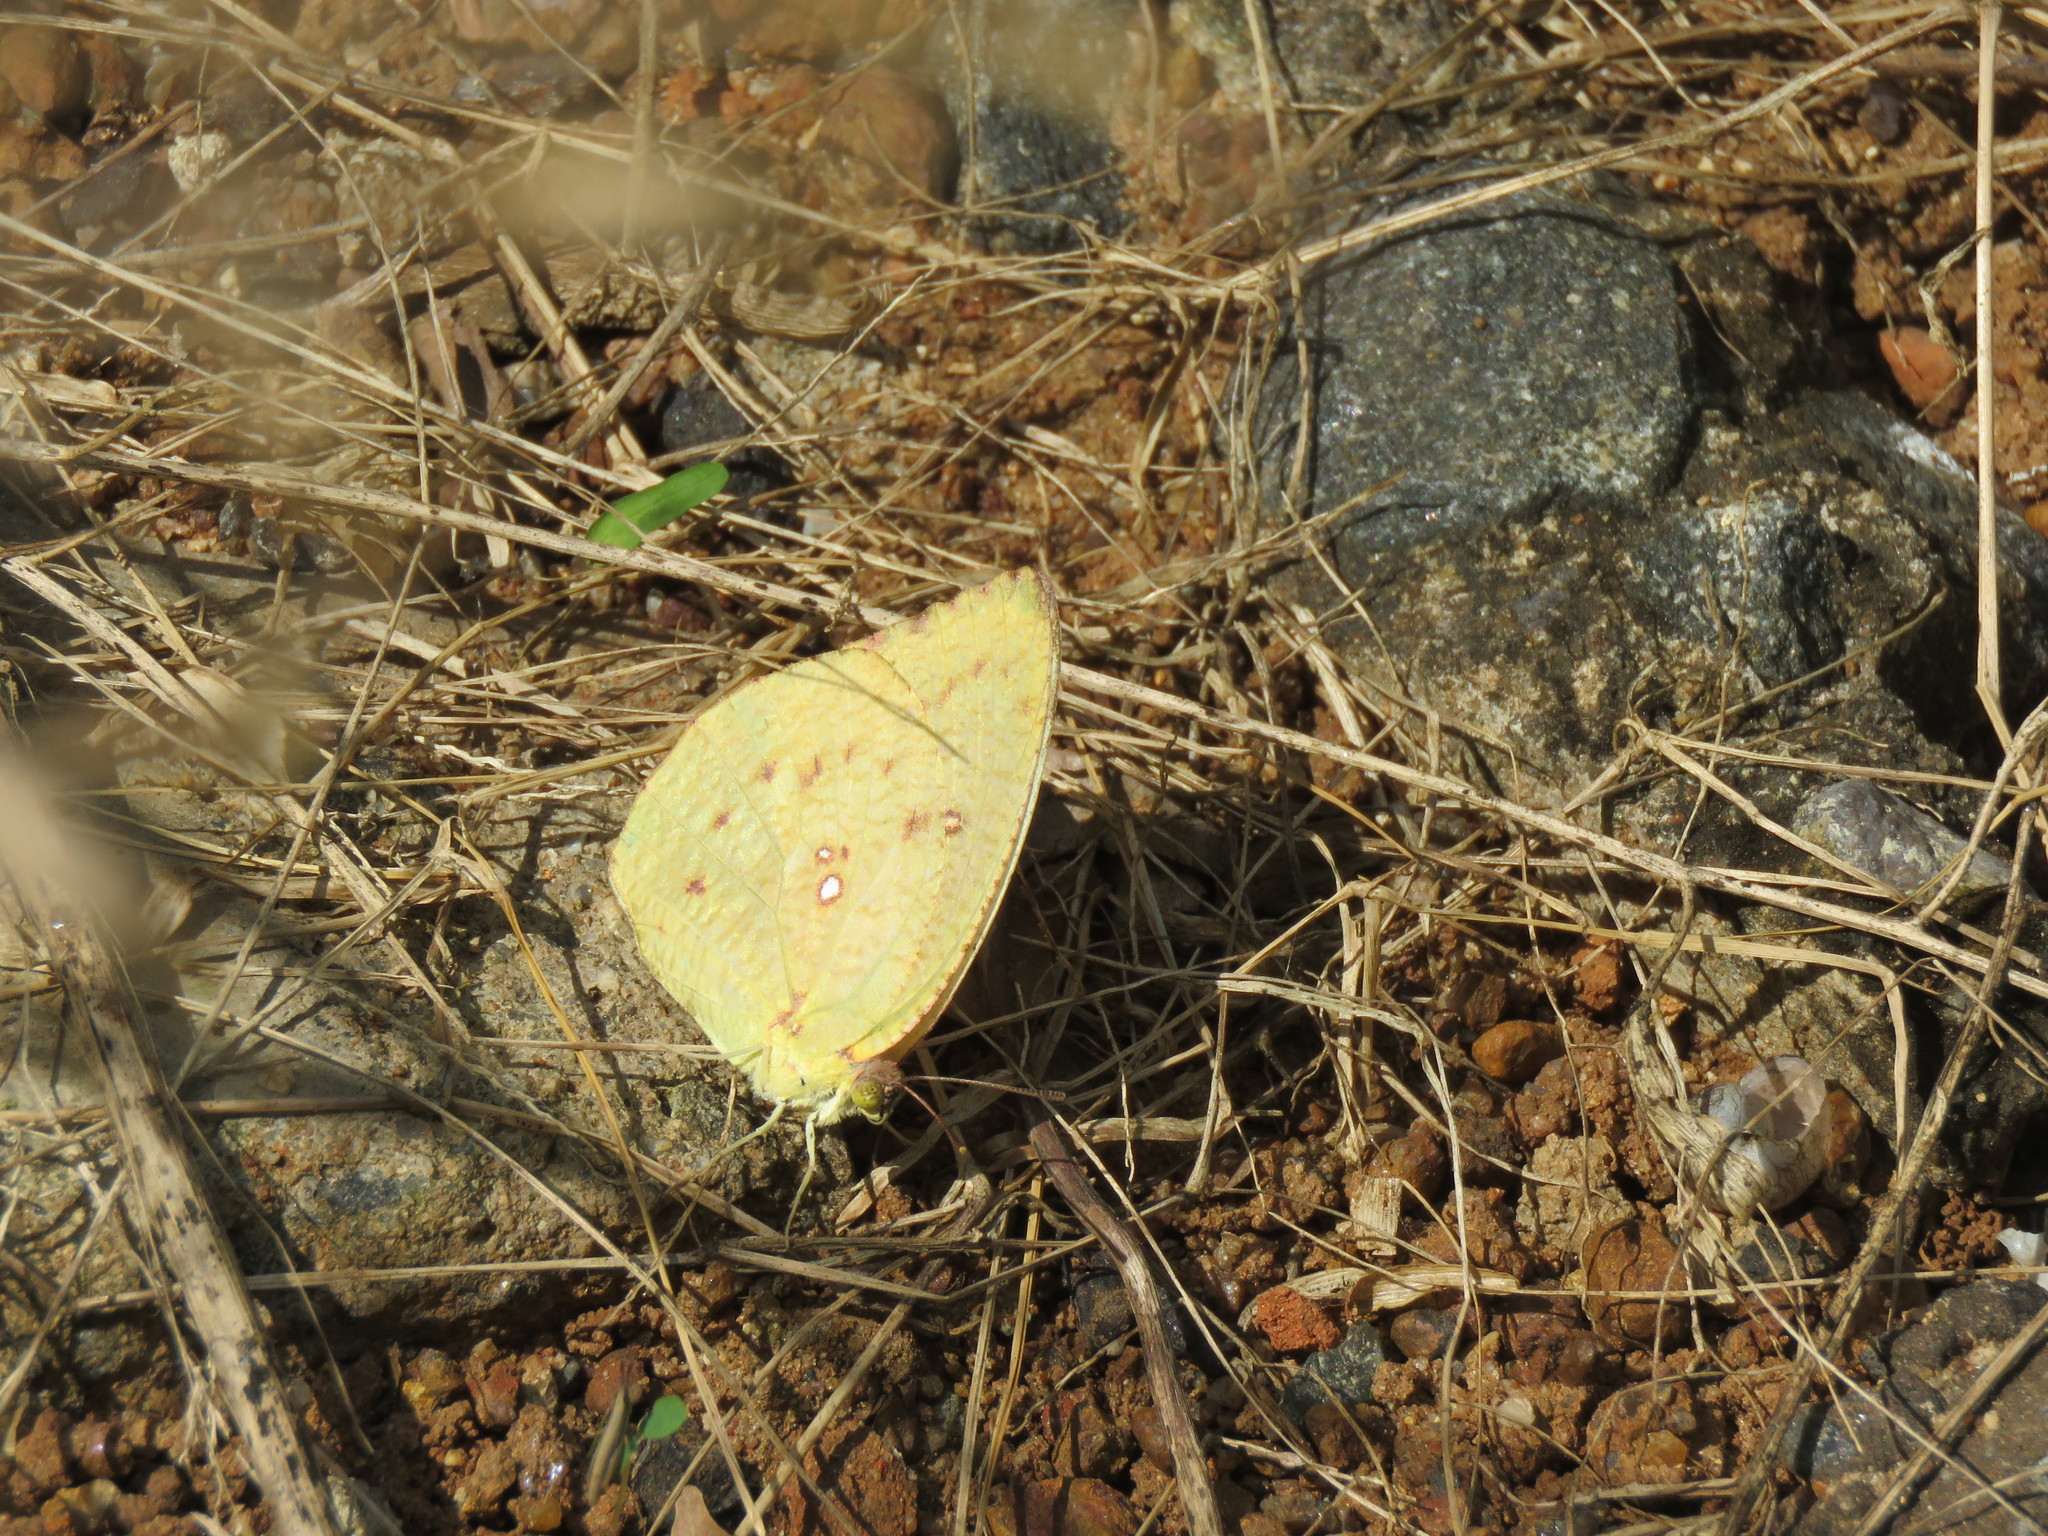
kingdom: Animalia
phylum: Arthropoda
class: Insecta
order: Lepidoptera
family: Pieridae
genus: Catopsilia
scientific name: Catopsilia pyranthe
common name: Mottled emigrant
